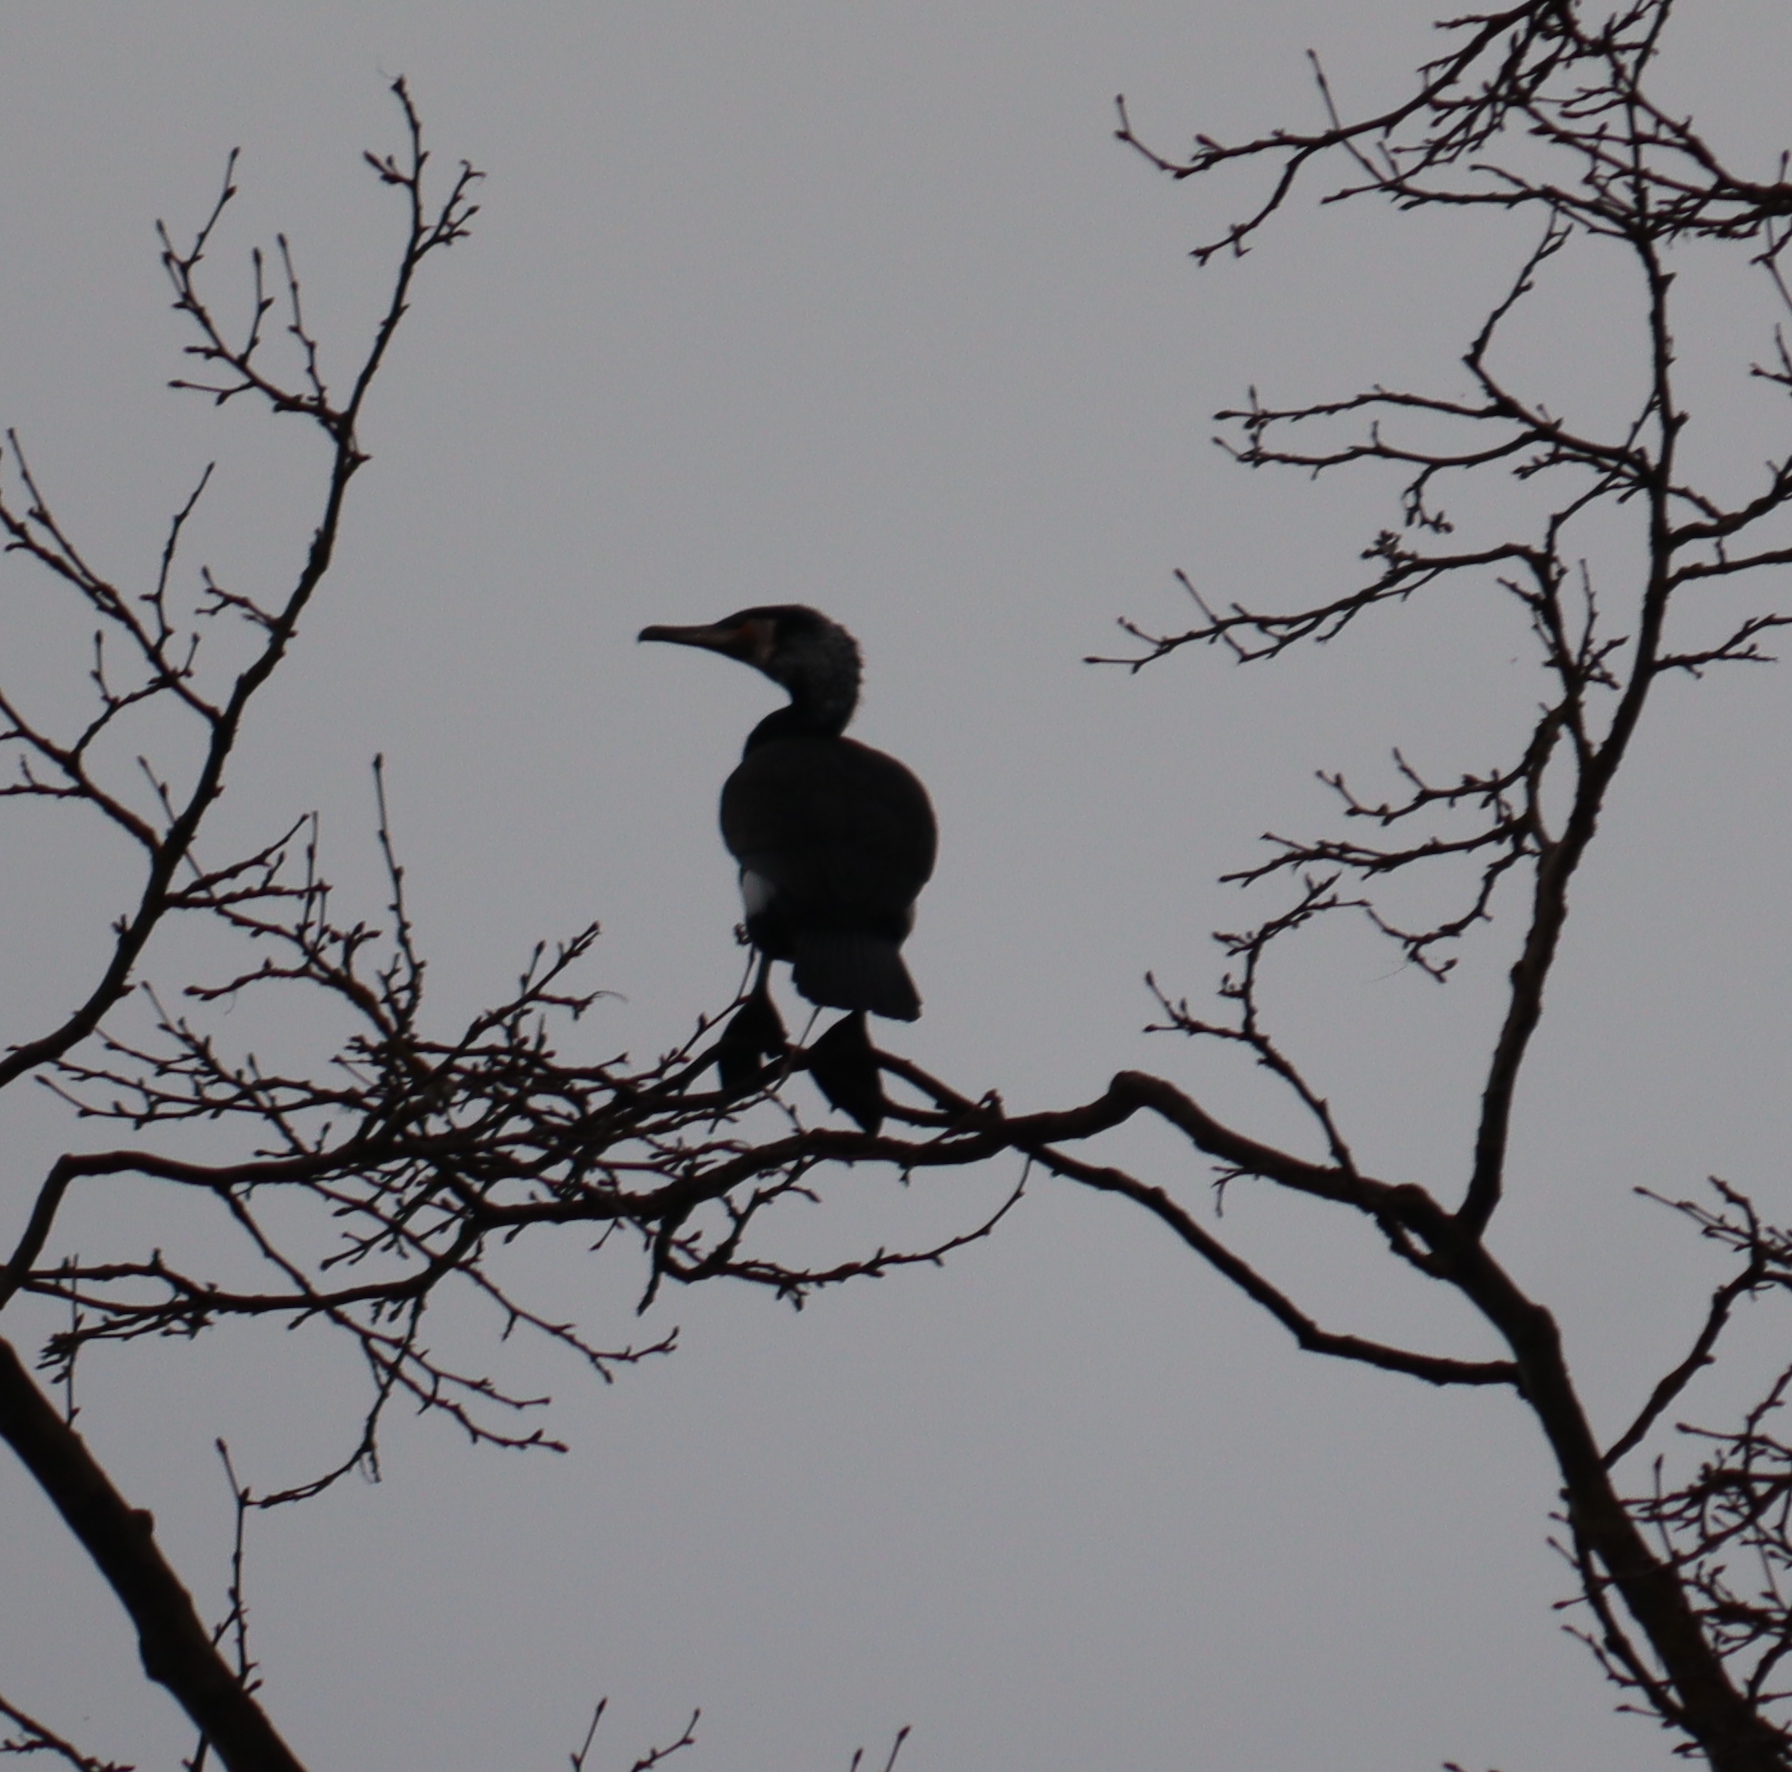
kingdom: Animalia
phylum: Chordata
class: Aves
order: Suliformes
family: Phalacrocoracidae
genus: Phalacrocorax
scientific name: Phalacrocorax carbo
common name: Great cormorant
